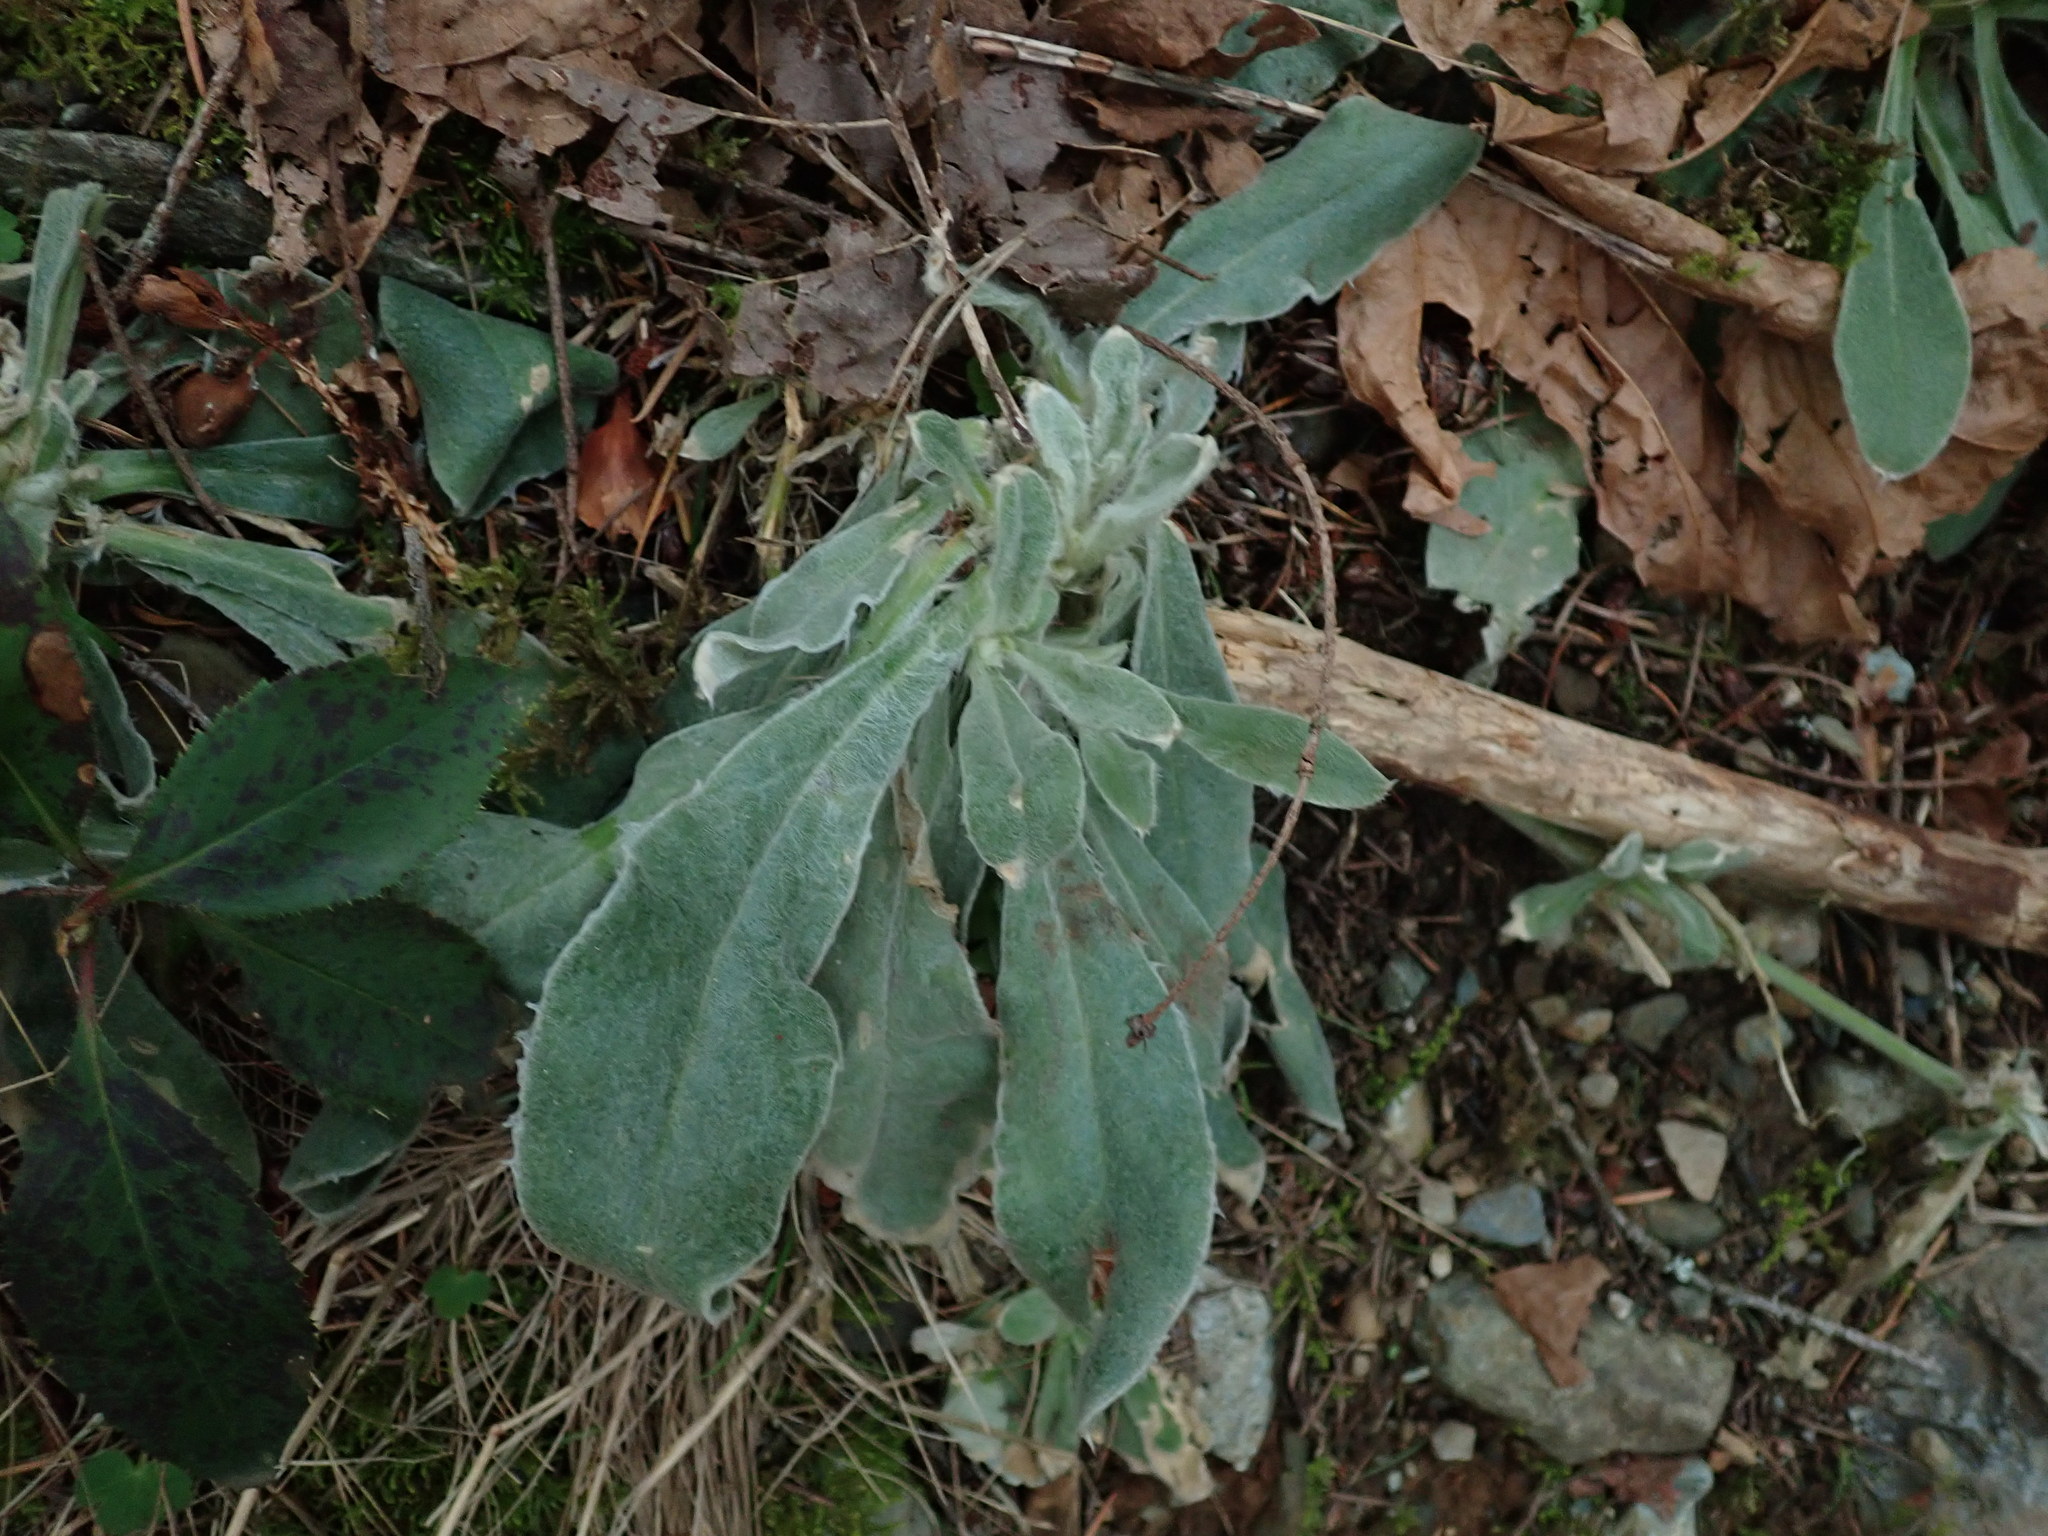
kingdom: Plantae
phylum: Tracheophyta
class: Magnoliopsida
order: Caryophyllales
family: Caryophyllaceae
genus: Silene
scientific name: Silene coronaria
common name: Rose campion
